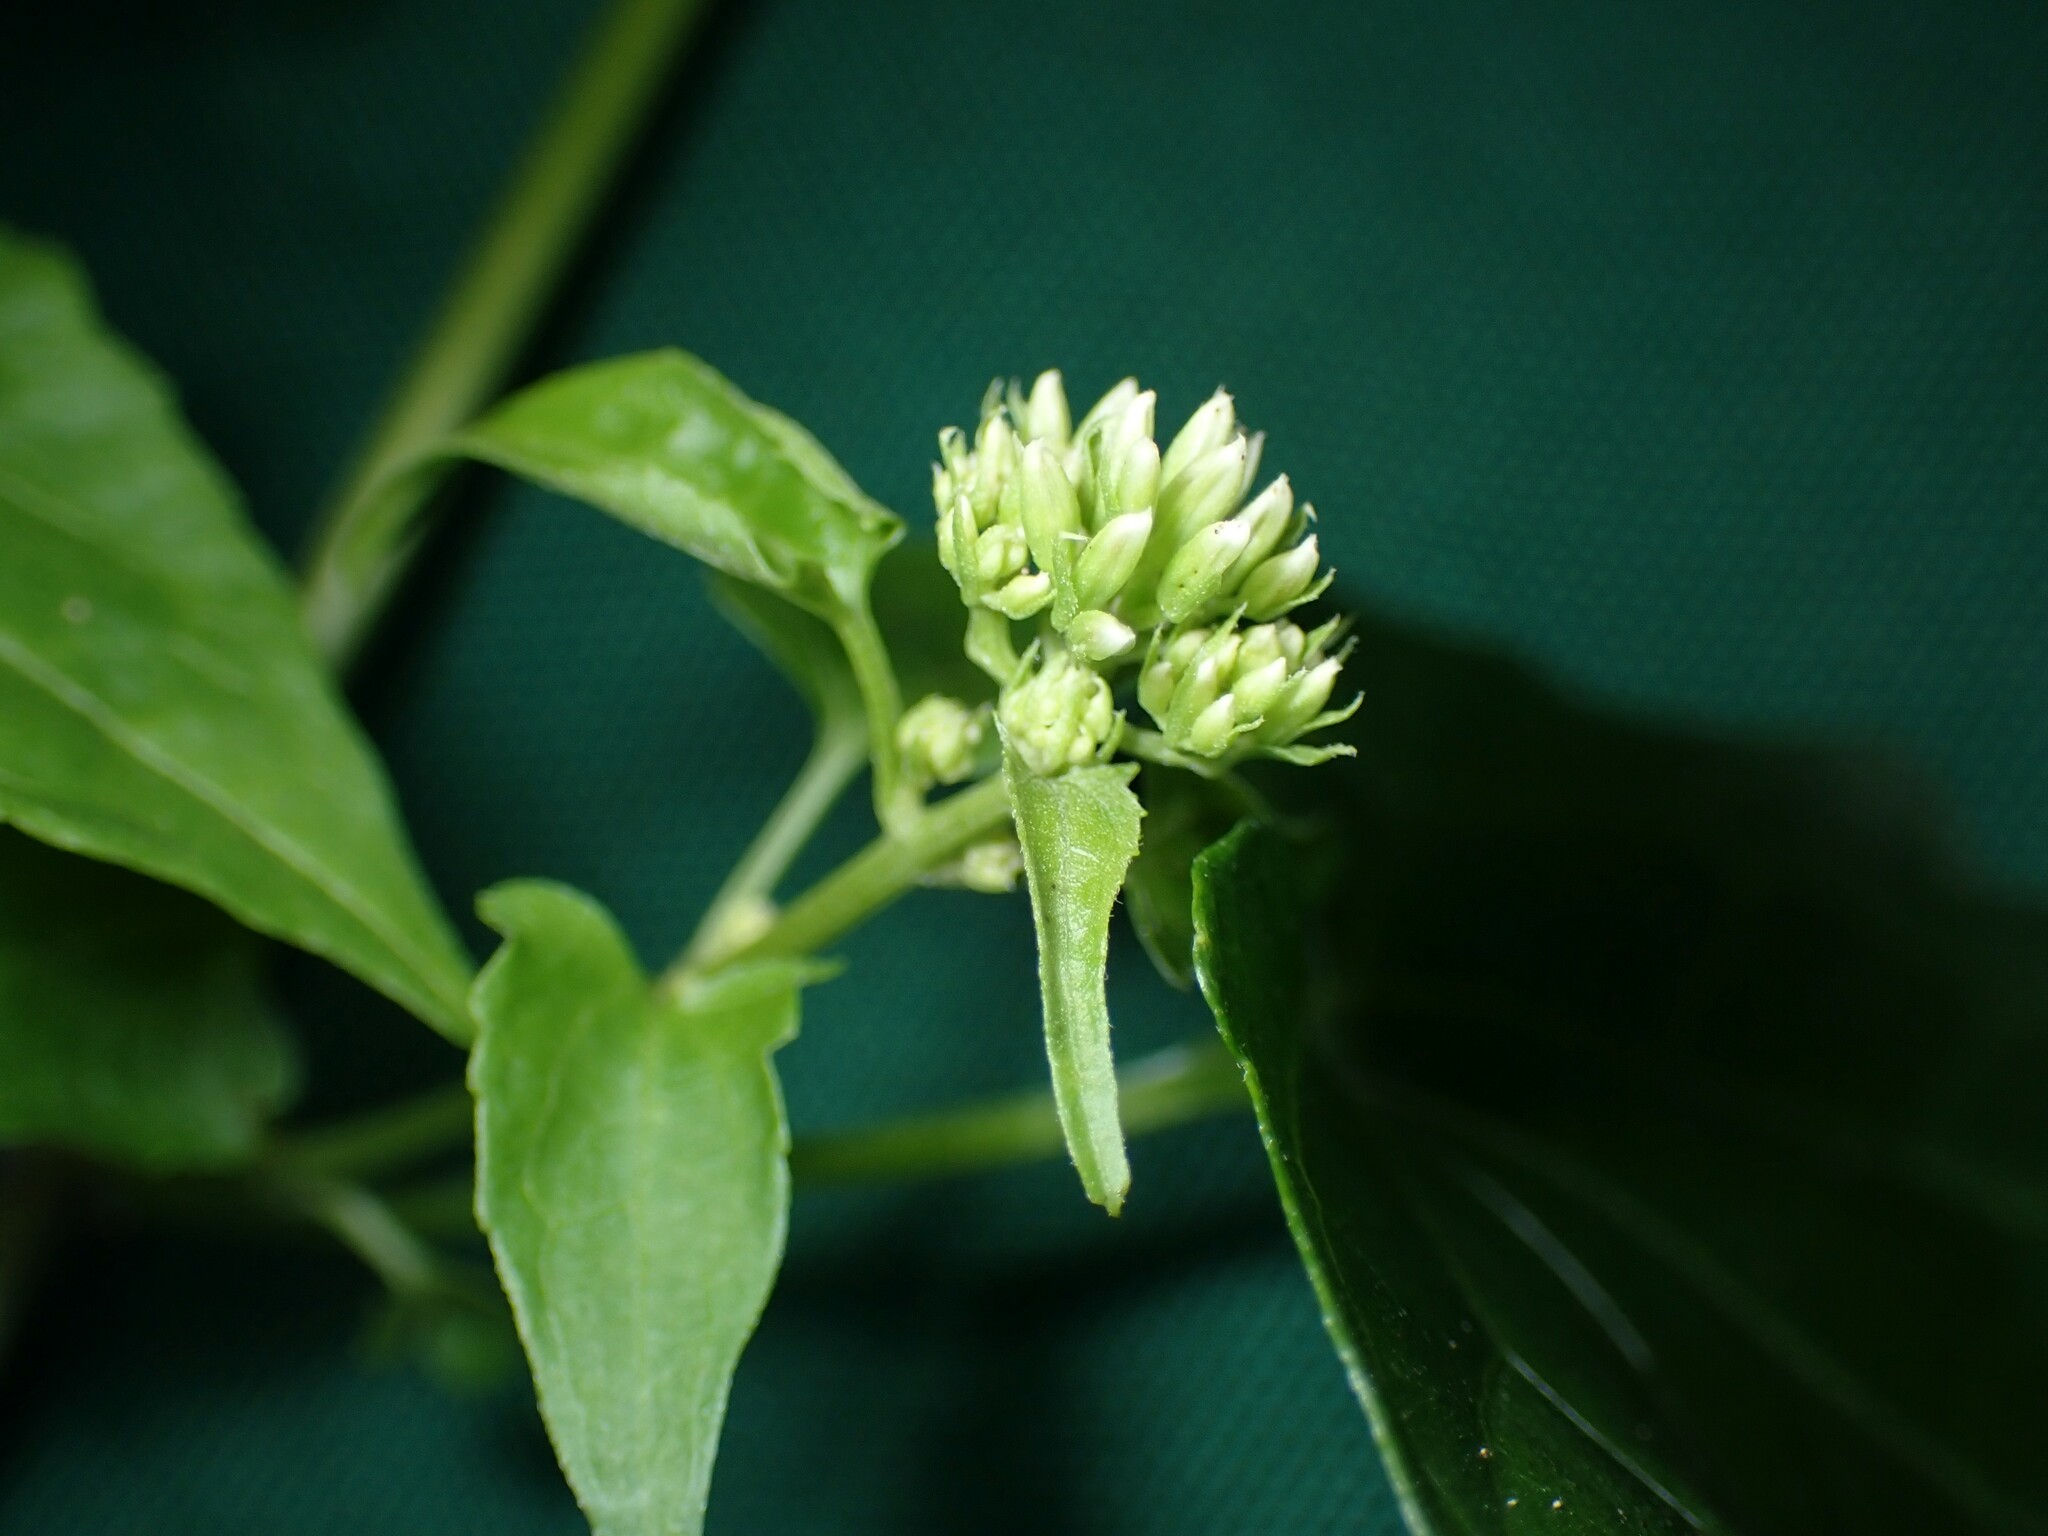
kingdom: Plantae
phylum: Tracheophyta
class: Magnoliopsida
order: Asterales
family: Asteraceae
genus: Mikania
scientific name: Mikania micrantha
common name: Mile-a-minute
